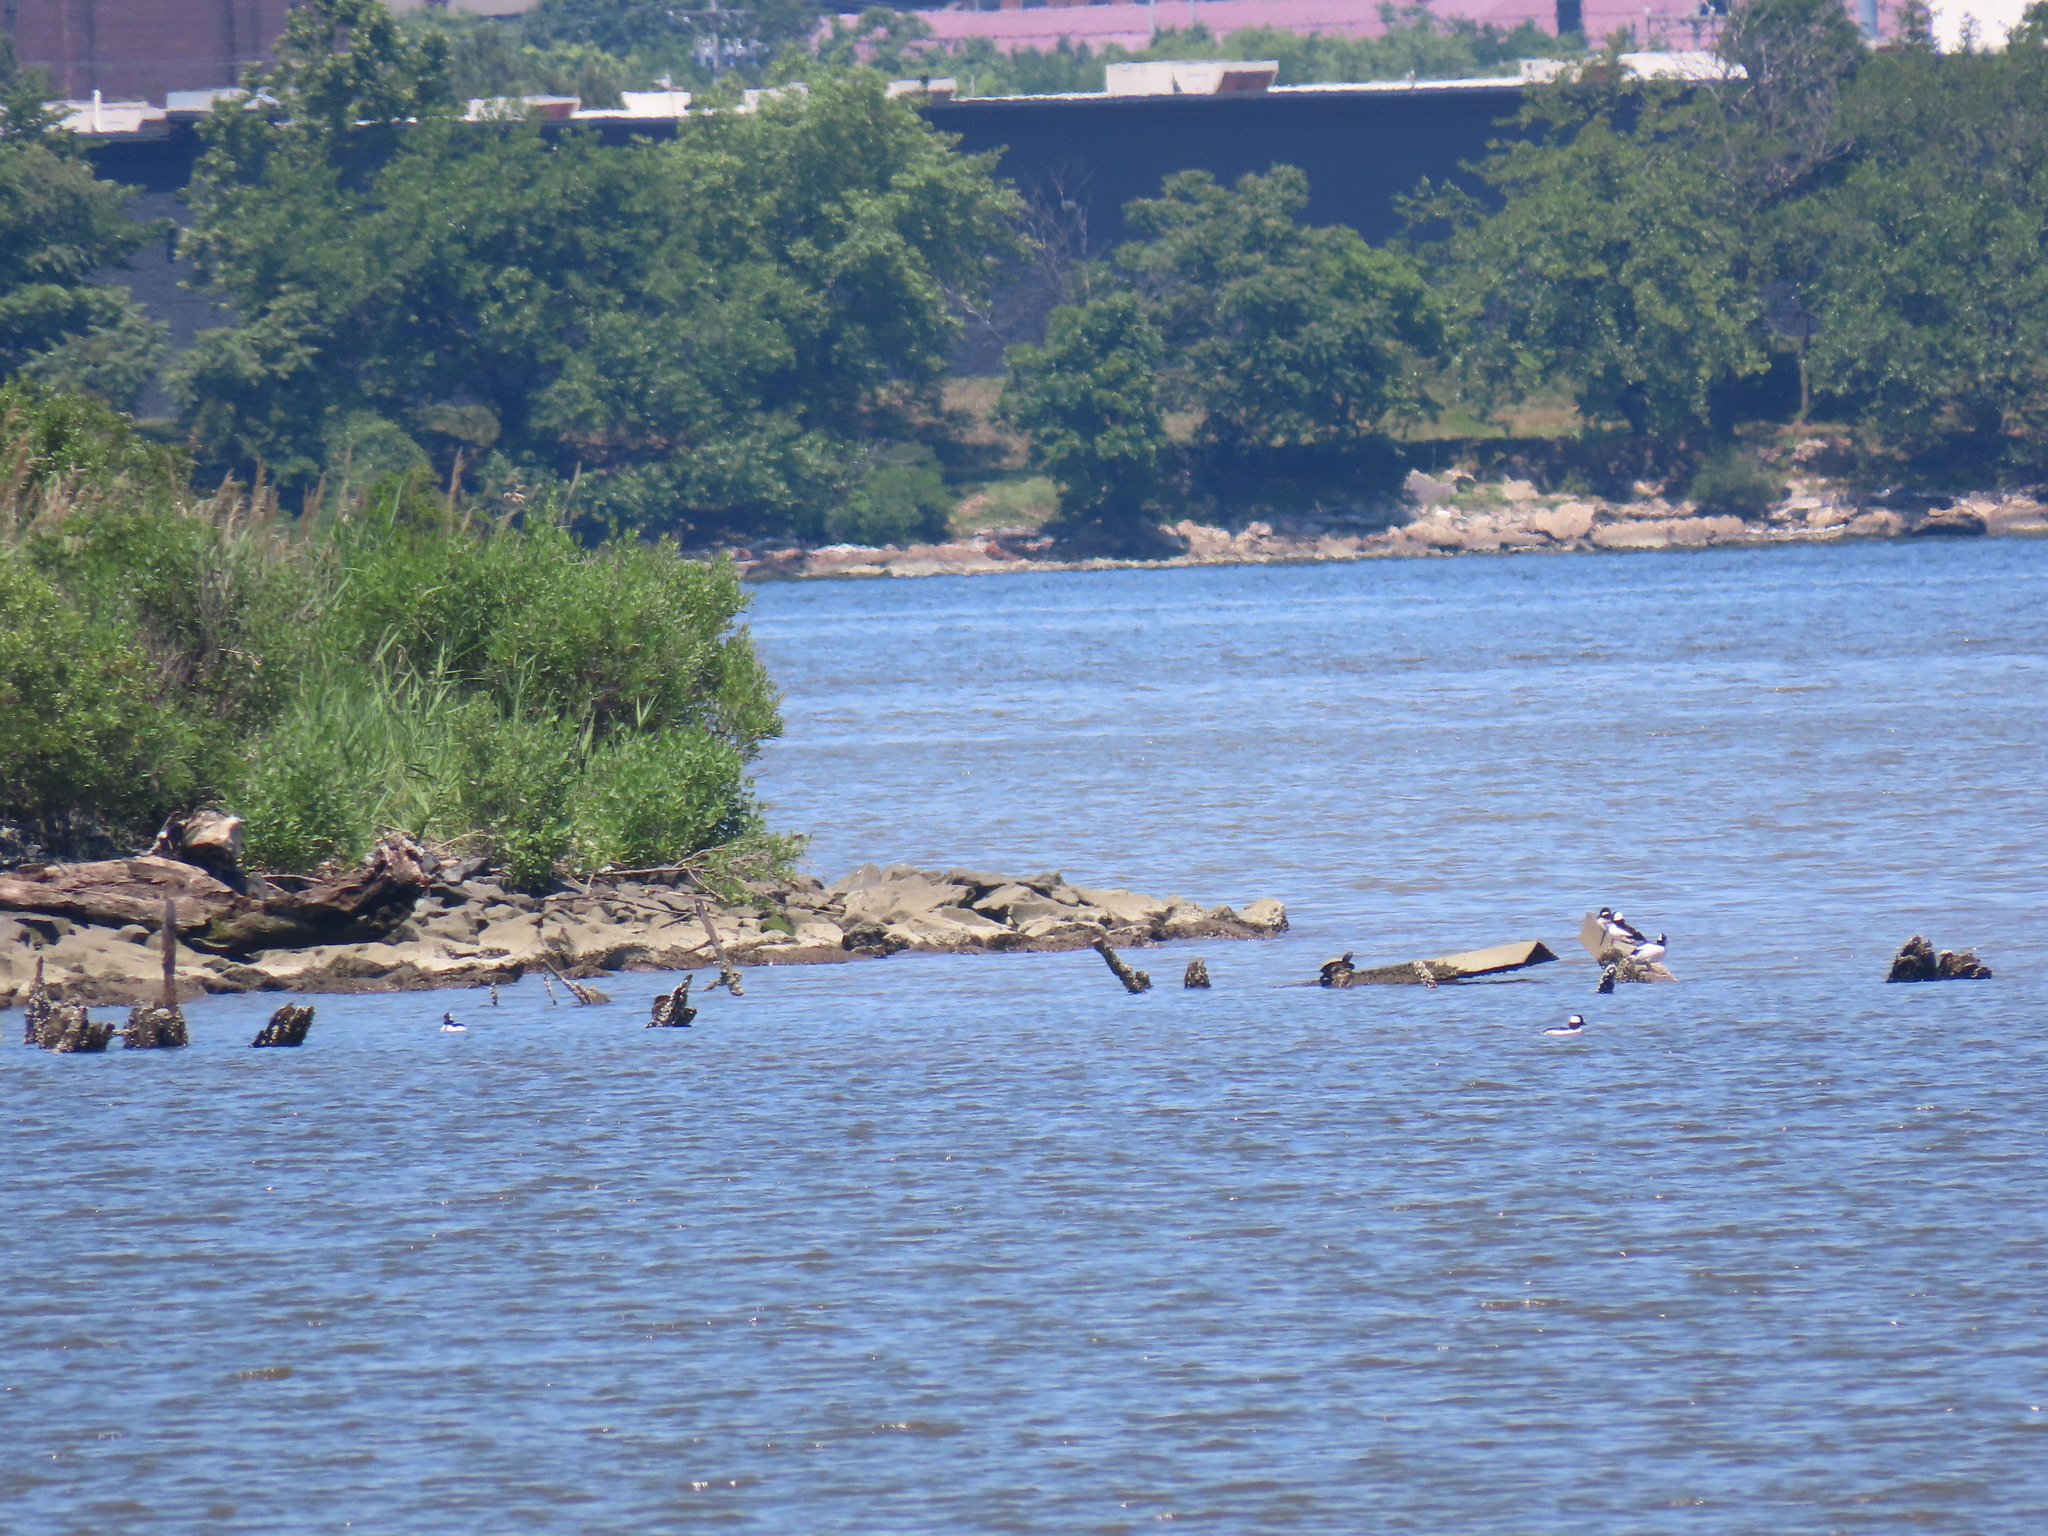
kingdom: Animalia
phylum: Chordata
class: Aves
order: Anseriformes
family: Anatidae
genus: Bucephala
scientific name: Bucephala albeola
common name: Bufflehead
